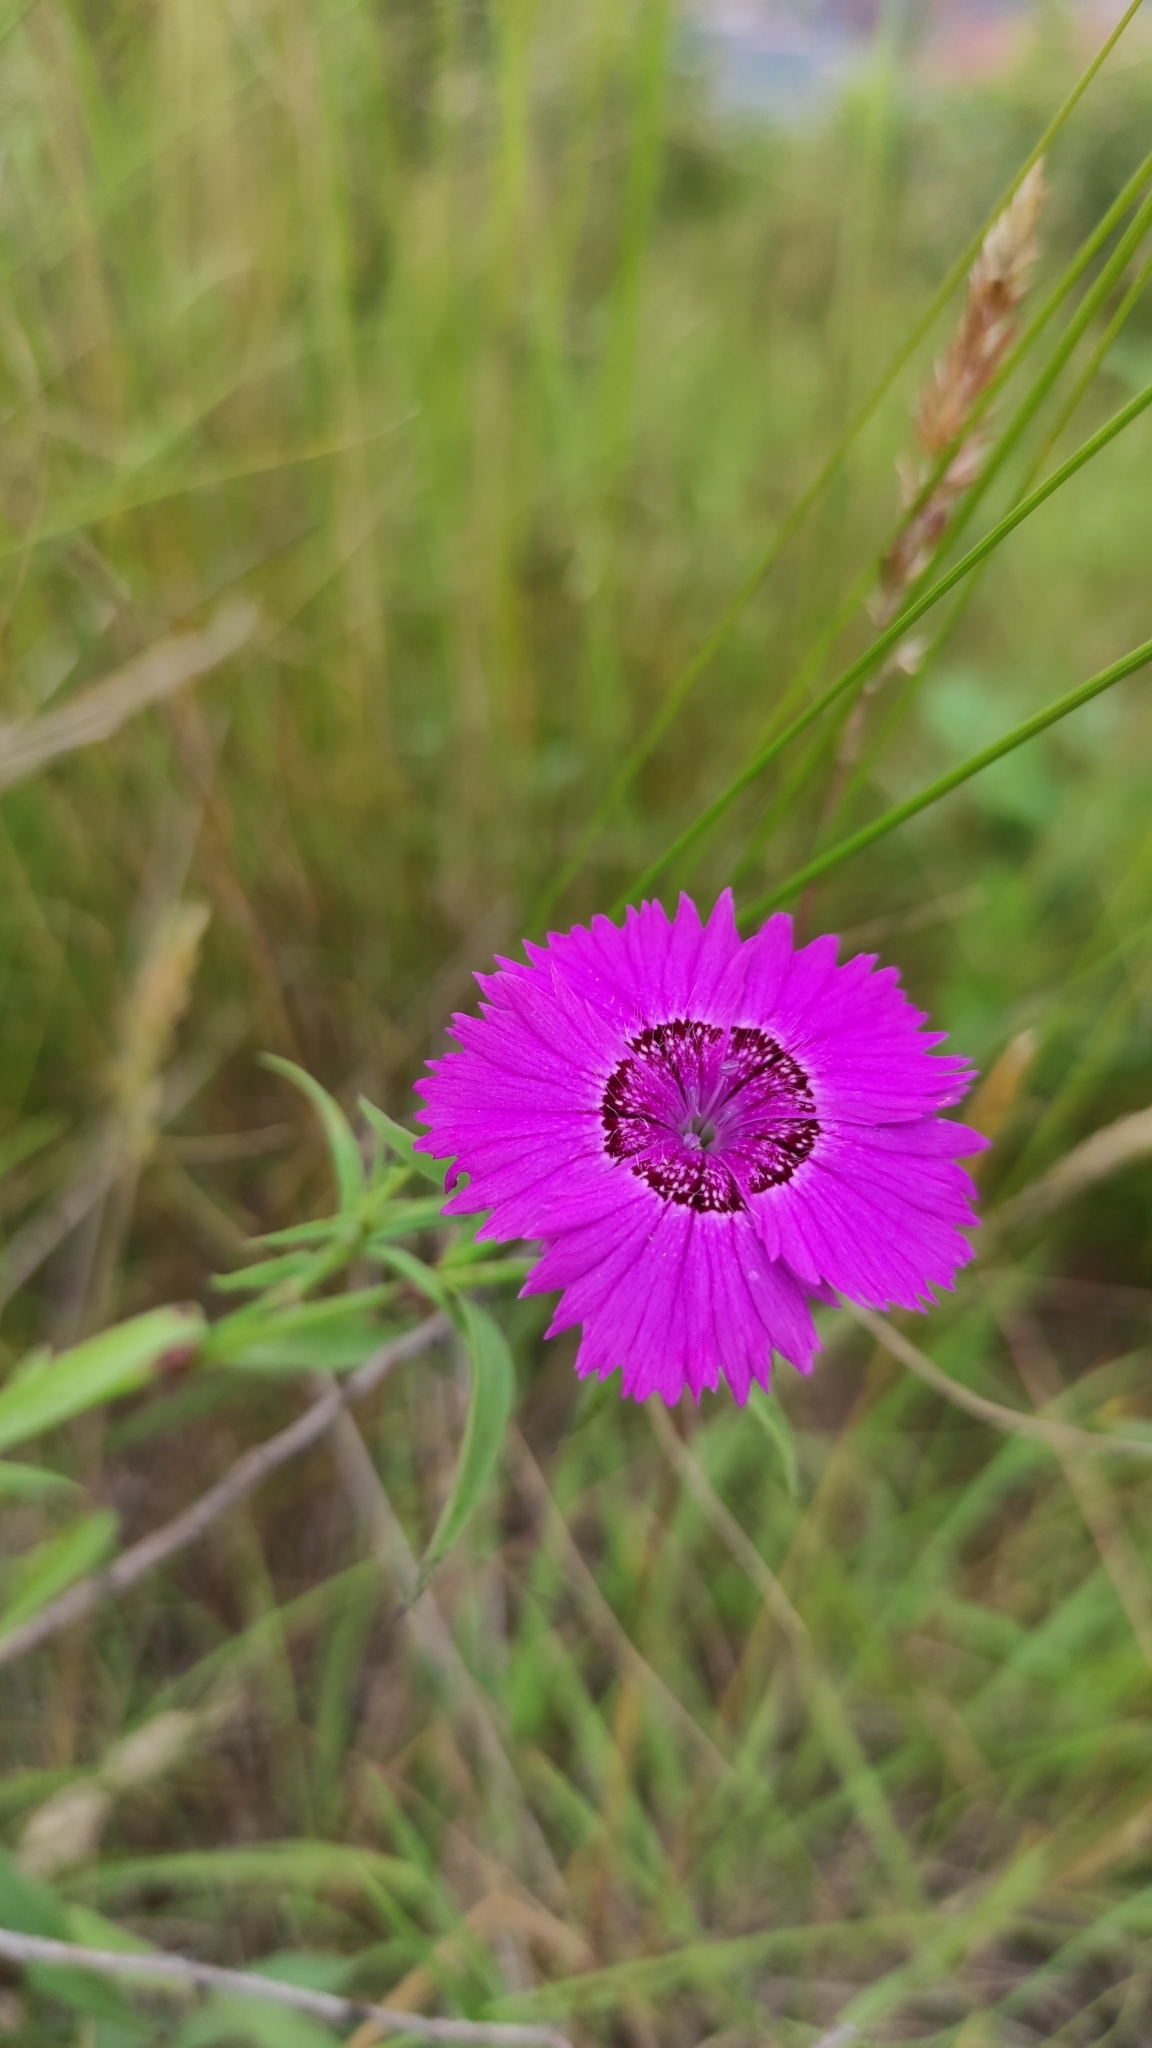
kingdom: Plantae
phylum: Tracheophyta
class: Magnoliopsida
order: Caryophyllales
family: Caryophyllaceae
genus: Dianthus
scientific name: Dianthus chinensis
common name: Rainbow pink
